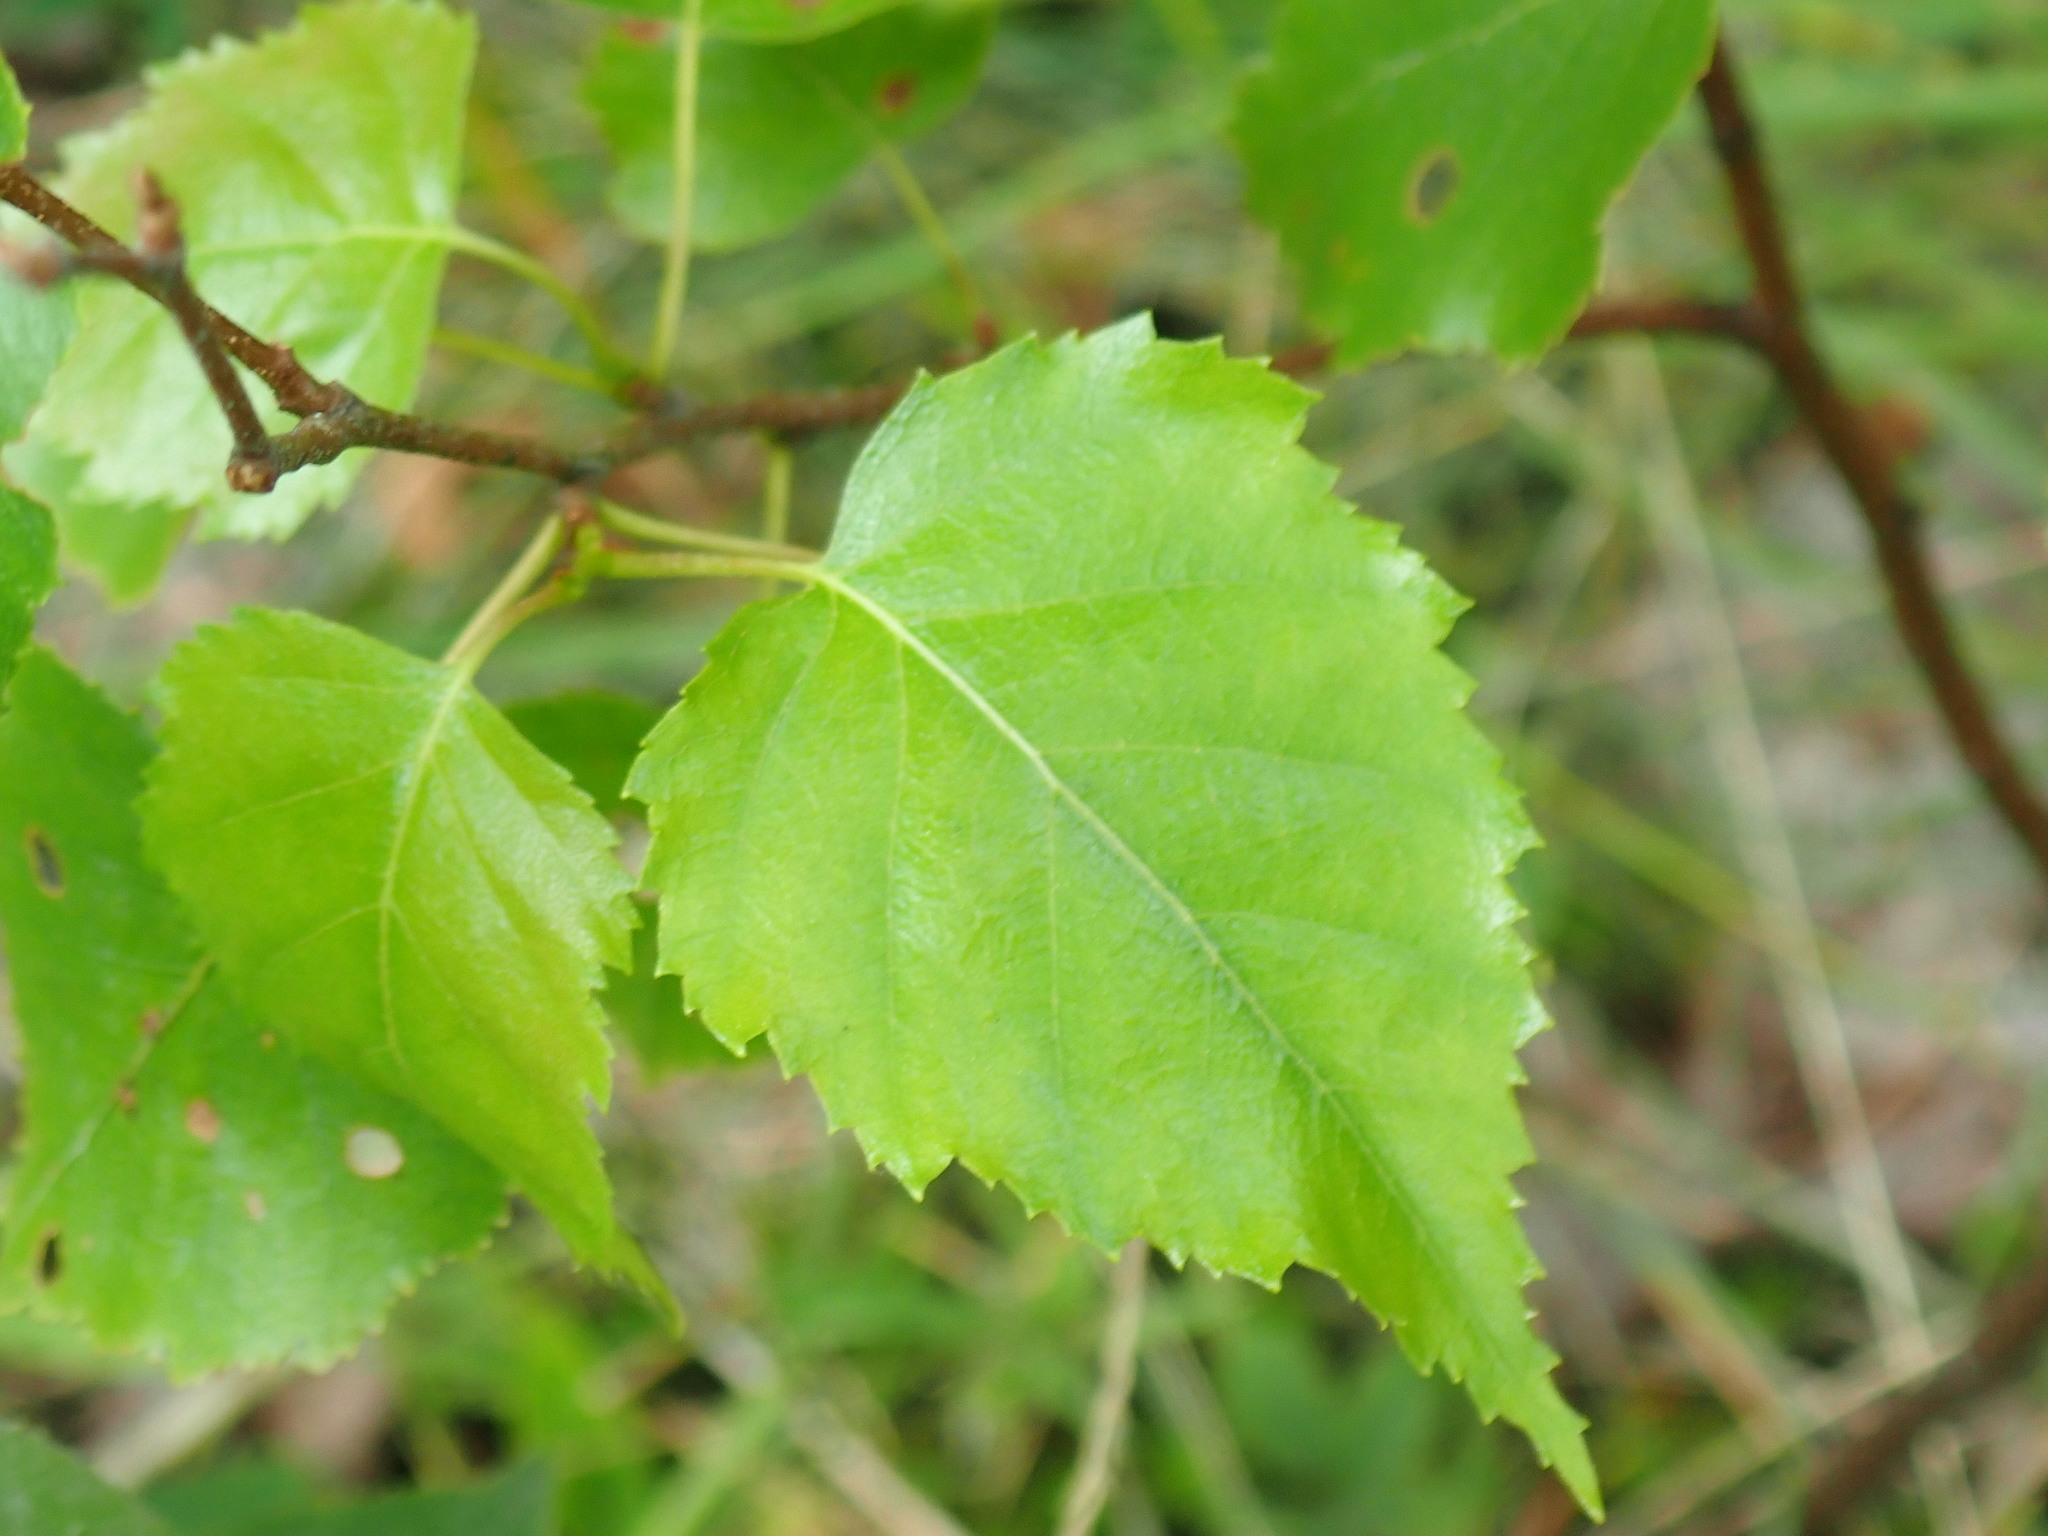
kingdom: Plantae
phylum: Tracheophyta
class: Magnoliopsida
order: Fagales
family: Betulaceae
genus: Betula
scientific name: Betula populifolia
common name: Fire birch
